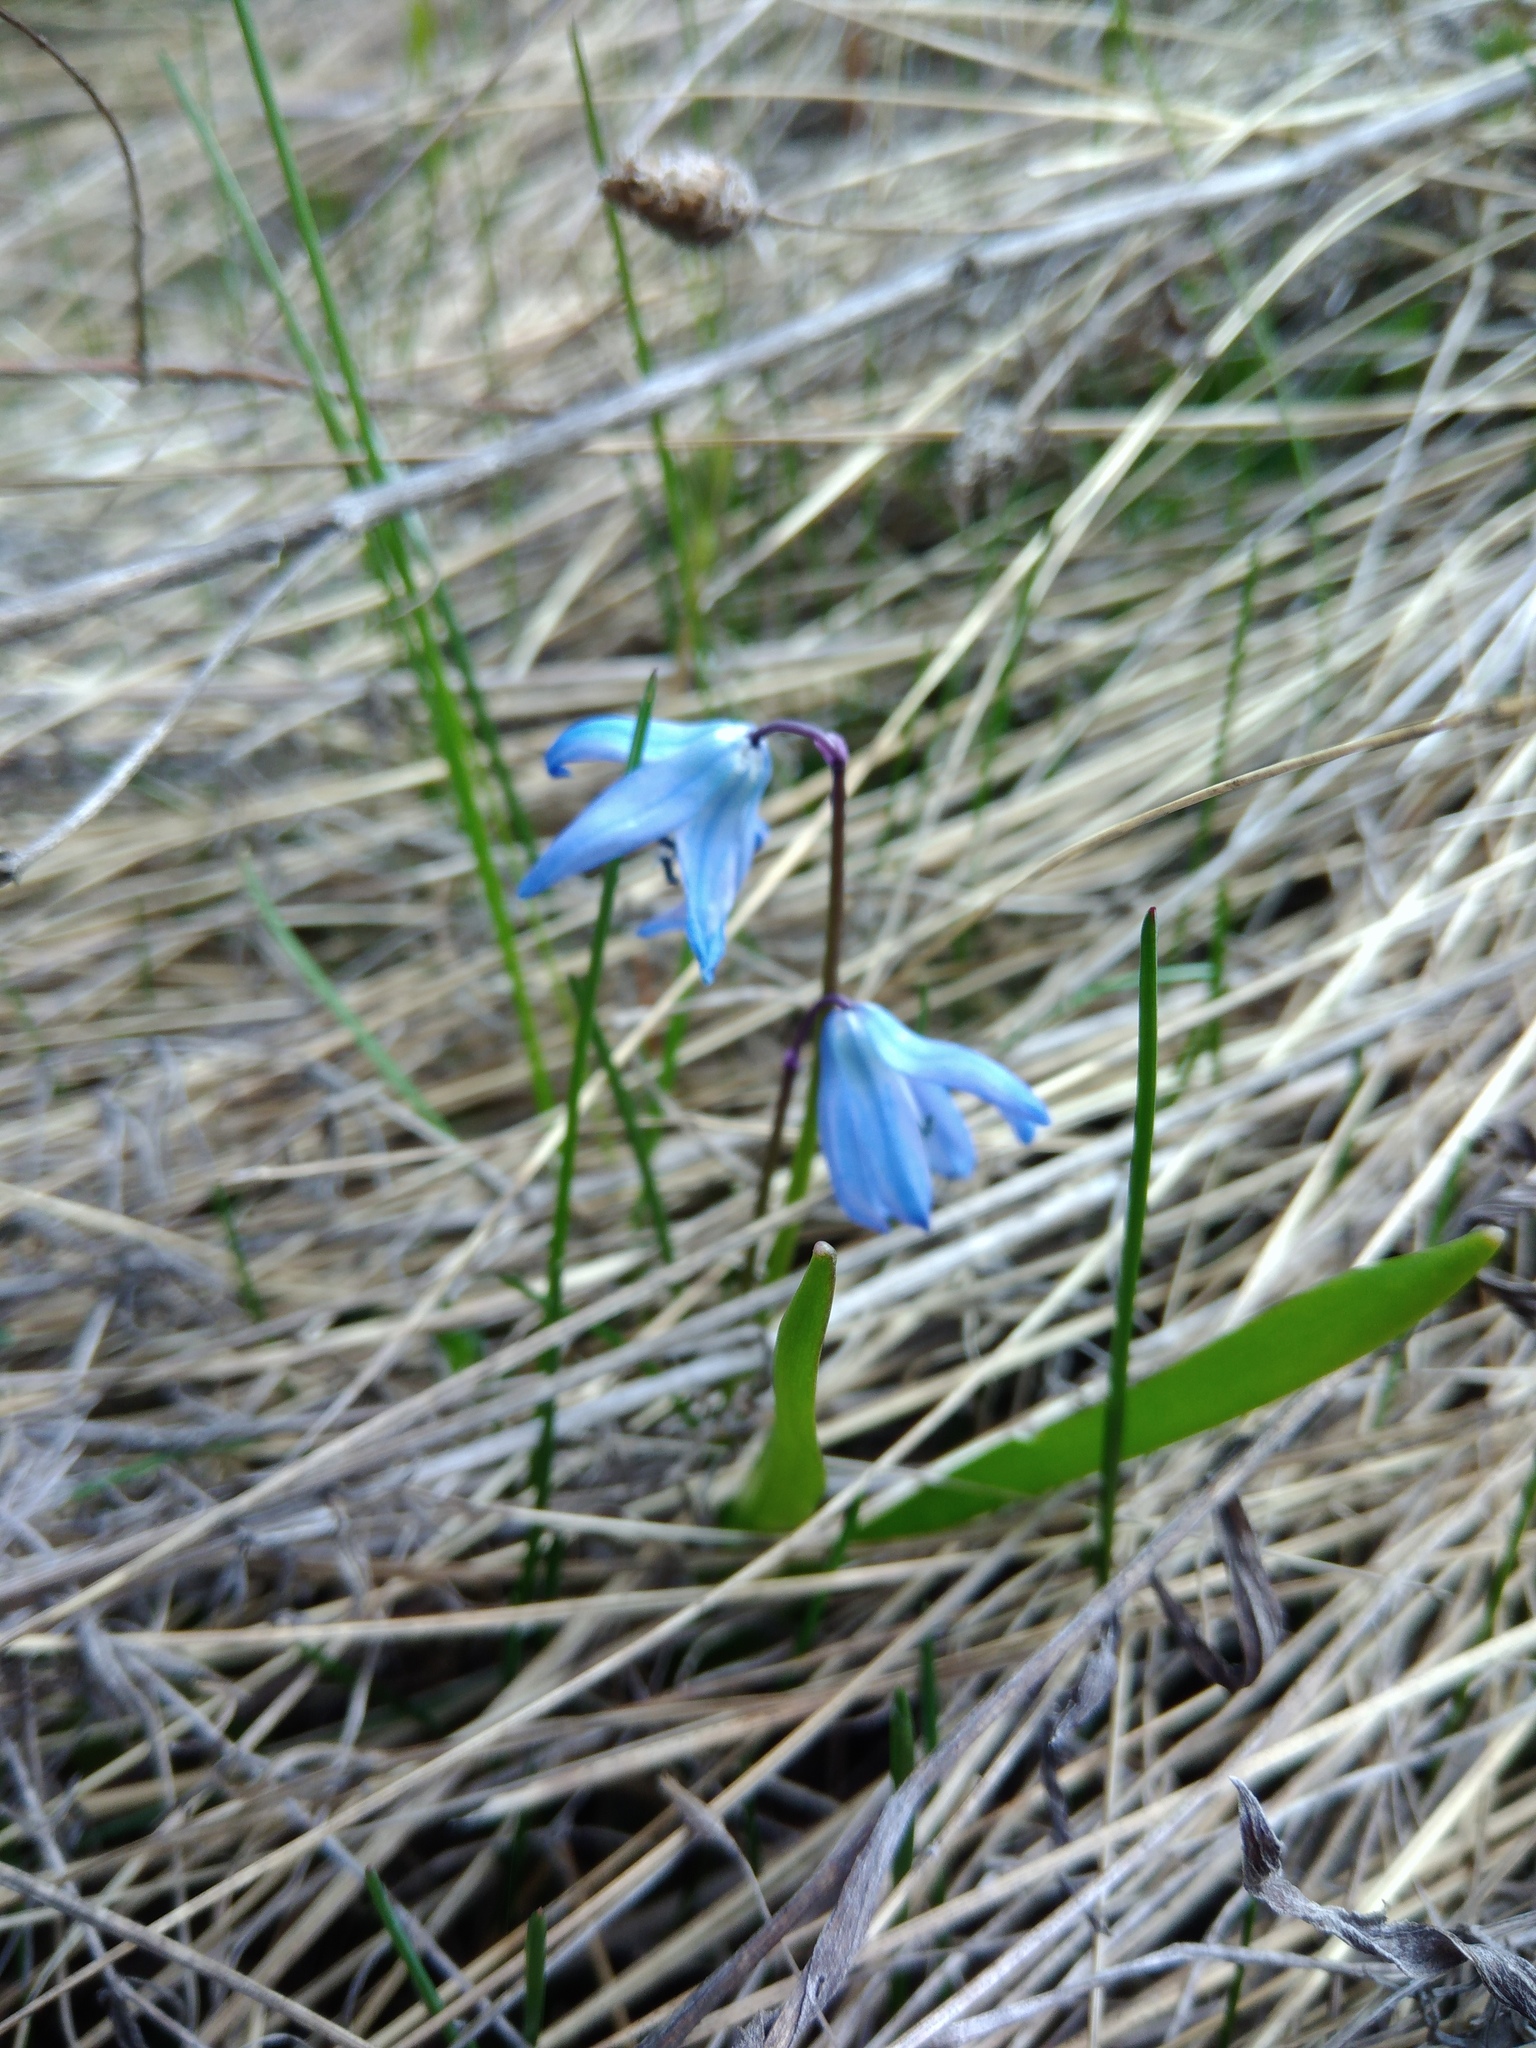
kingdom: Plantae
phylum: Tracheophyta
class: Liliopsida
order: Asparagales
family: Asparagaceae
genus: Scilla
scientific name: Scilla siberica
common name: Siberian squill
